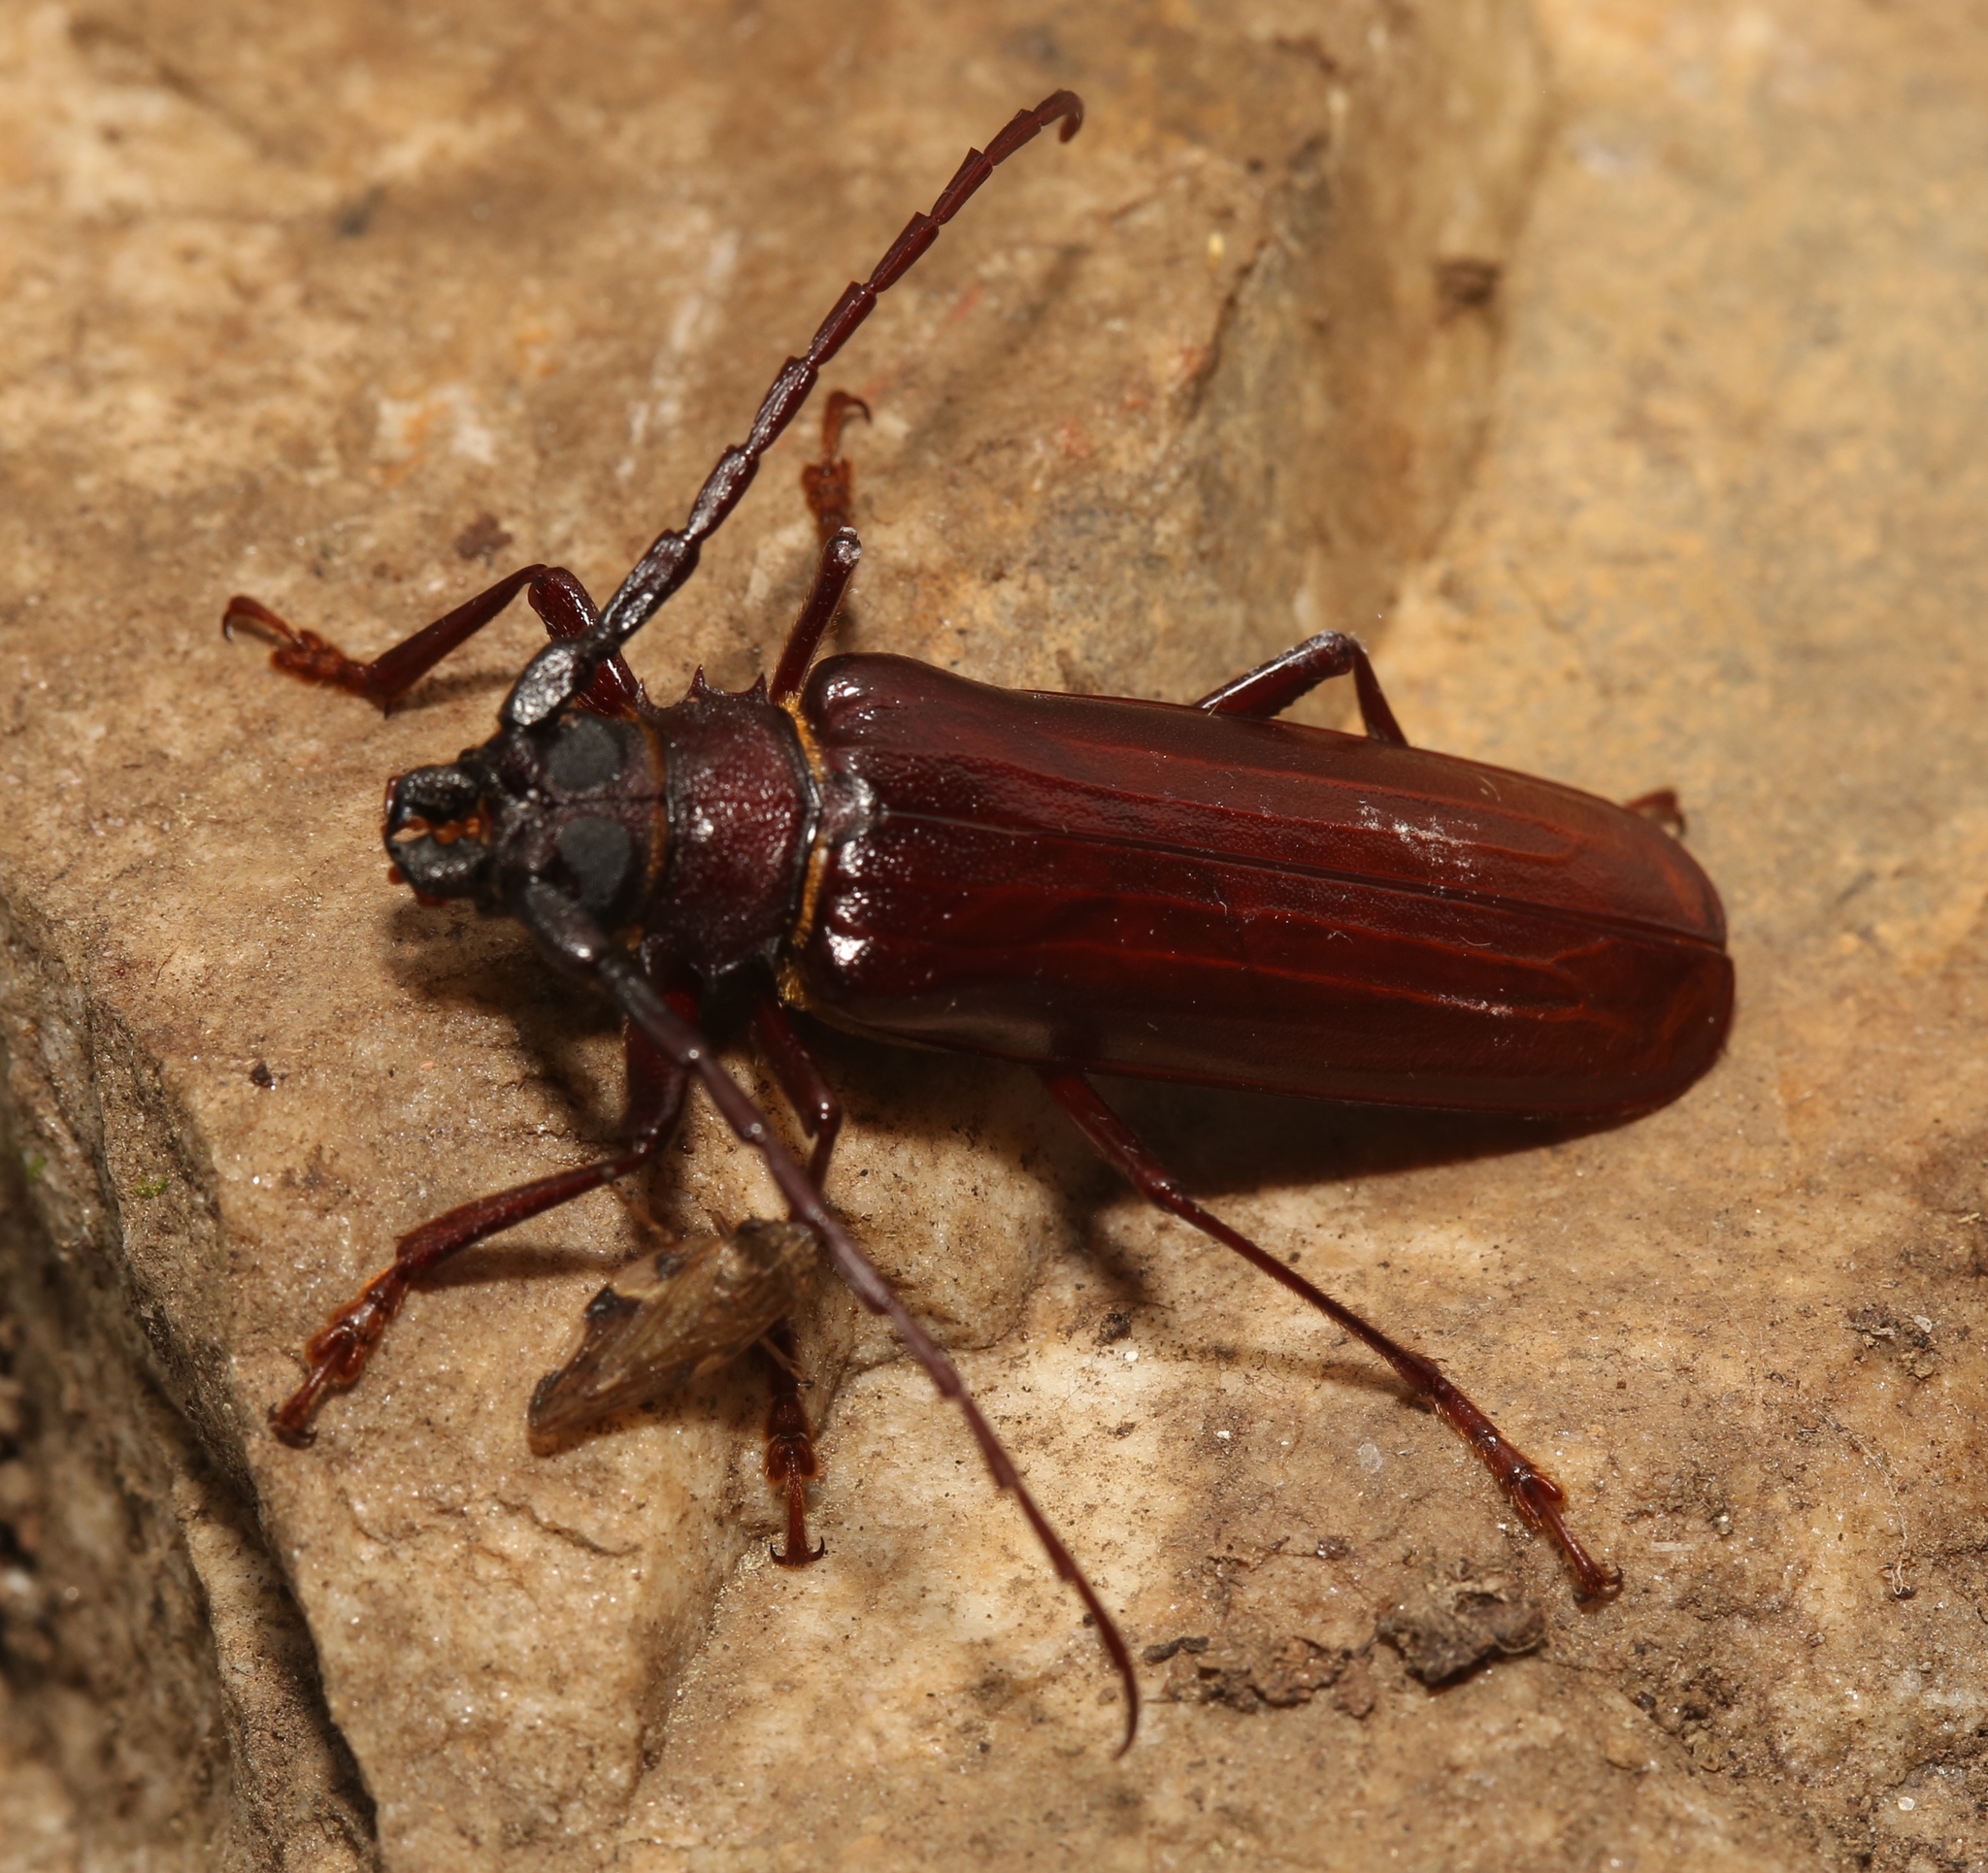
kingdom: Animalia
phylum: Arthropoda
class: Insecta
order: Coleoptera
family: Cerambycidae
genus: Orthosoma
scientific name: Orthosoma brunneum
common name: Brown prionid beetle
